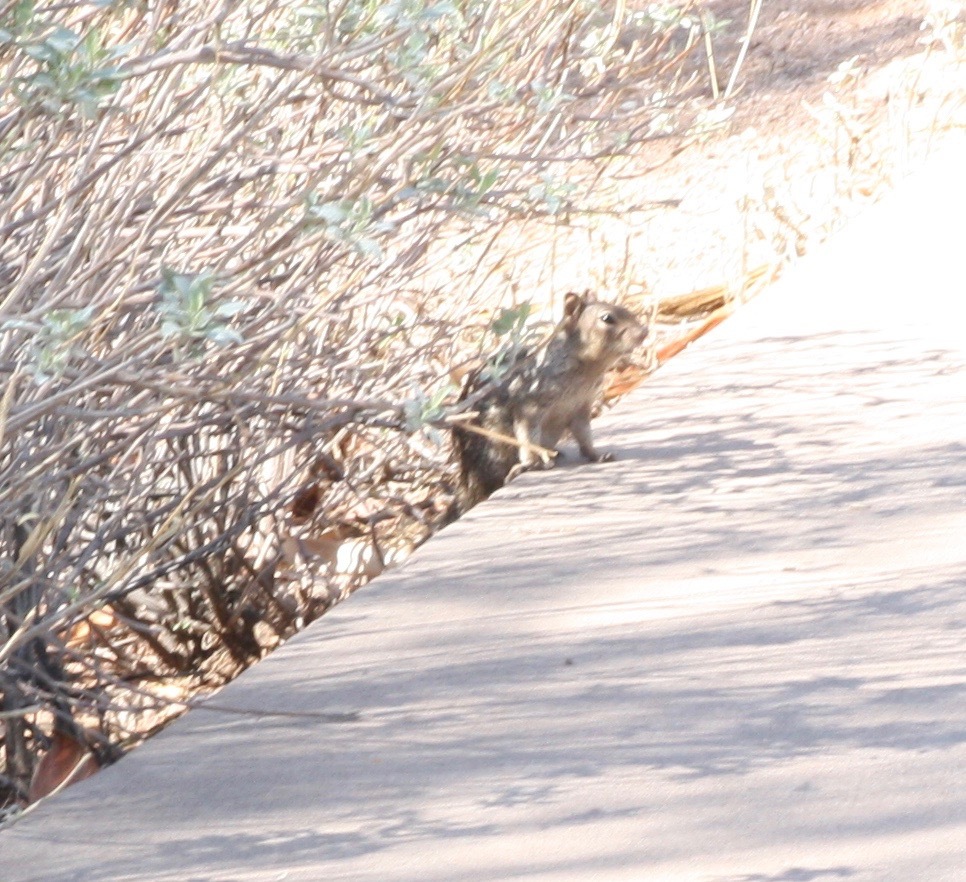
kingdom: Animalia
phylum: Chordata
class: Mammalia
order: Rodentia
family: Sciuridae
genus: Otospermophilus
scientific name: Otospermophilus variegatus
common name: Rock squirrel
